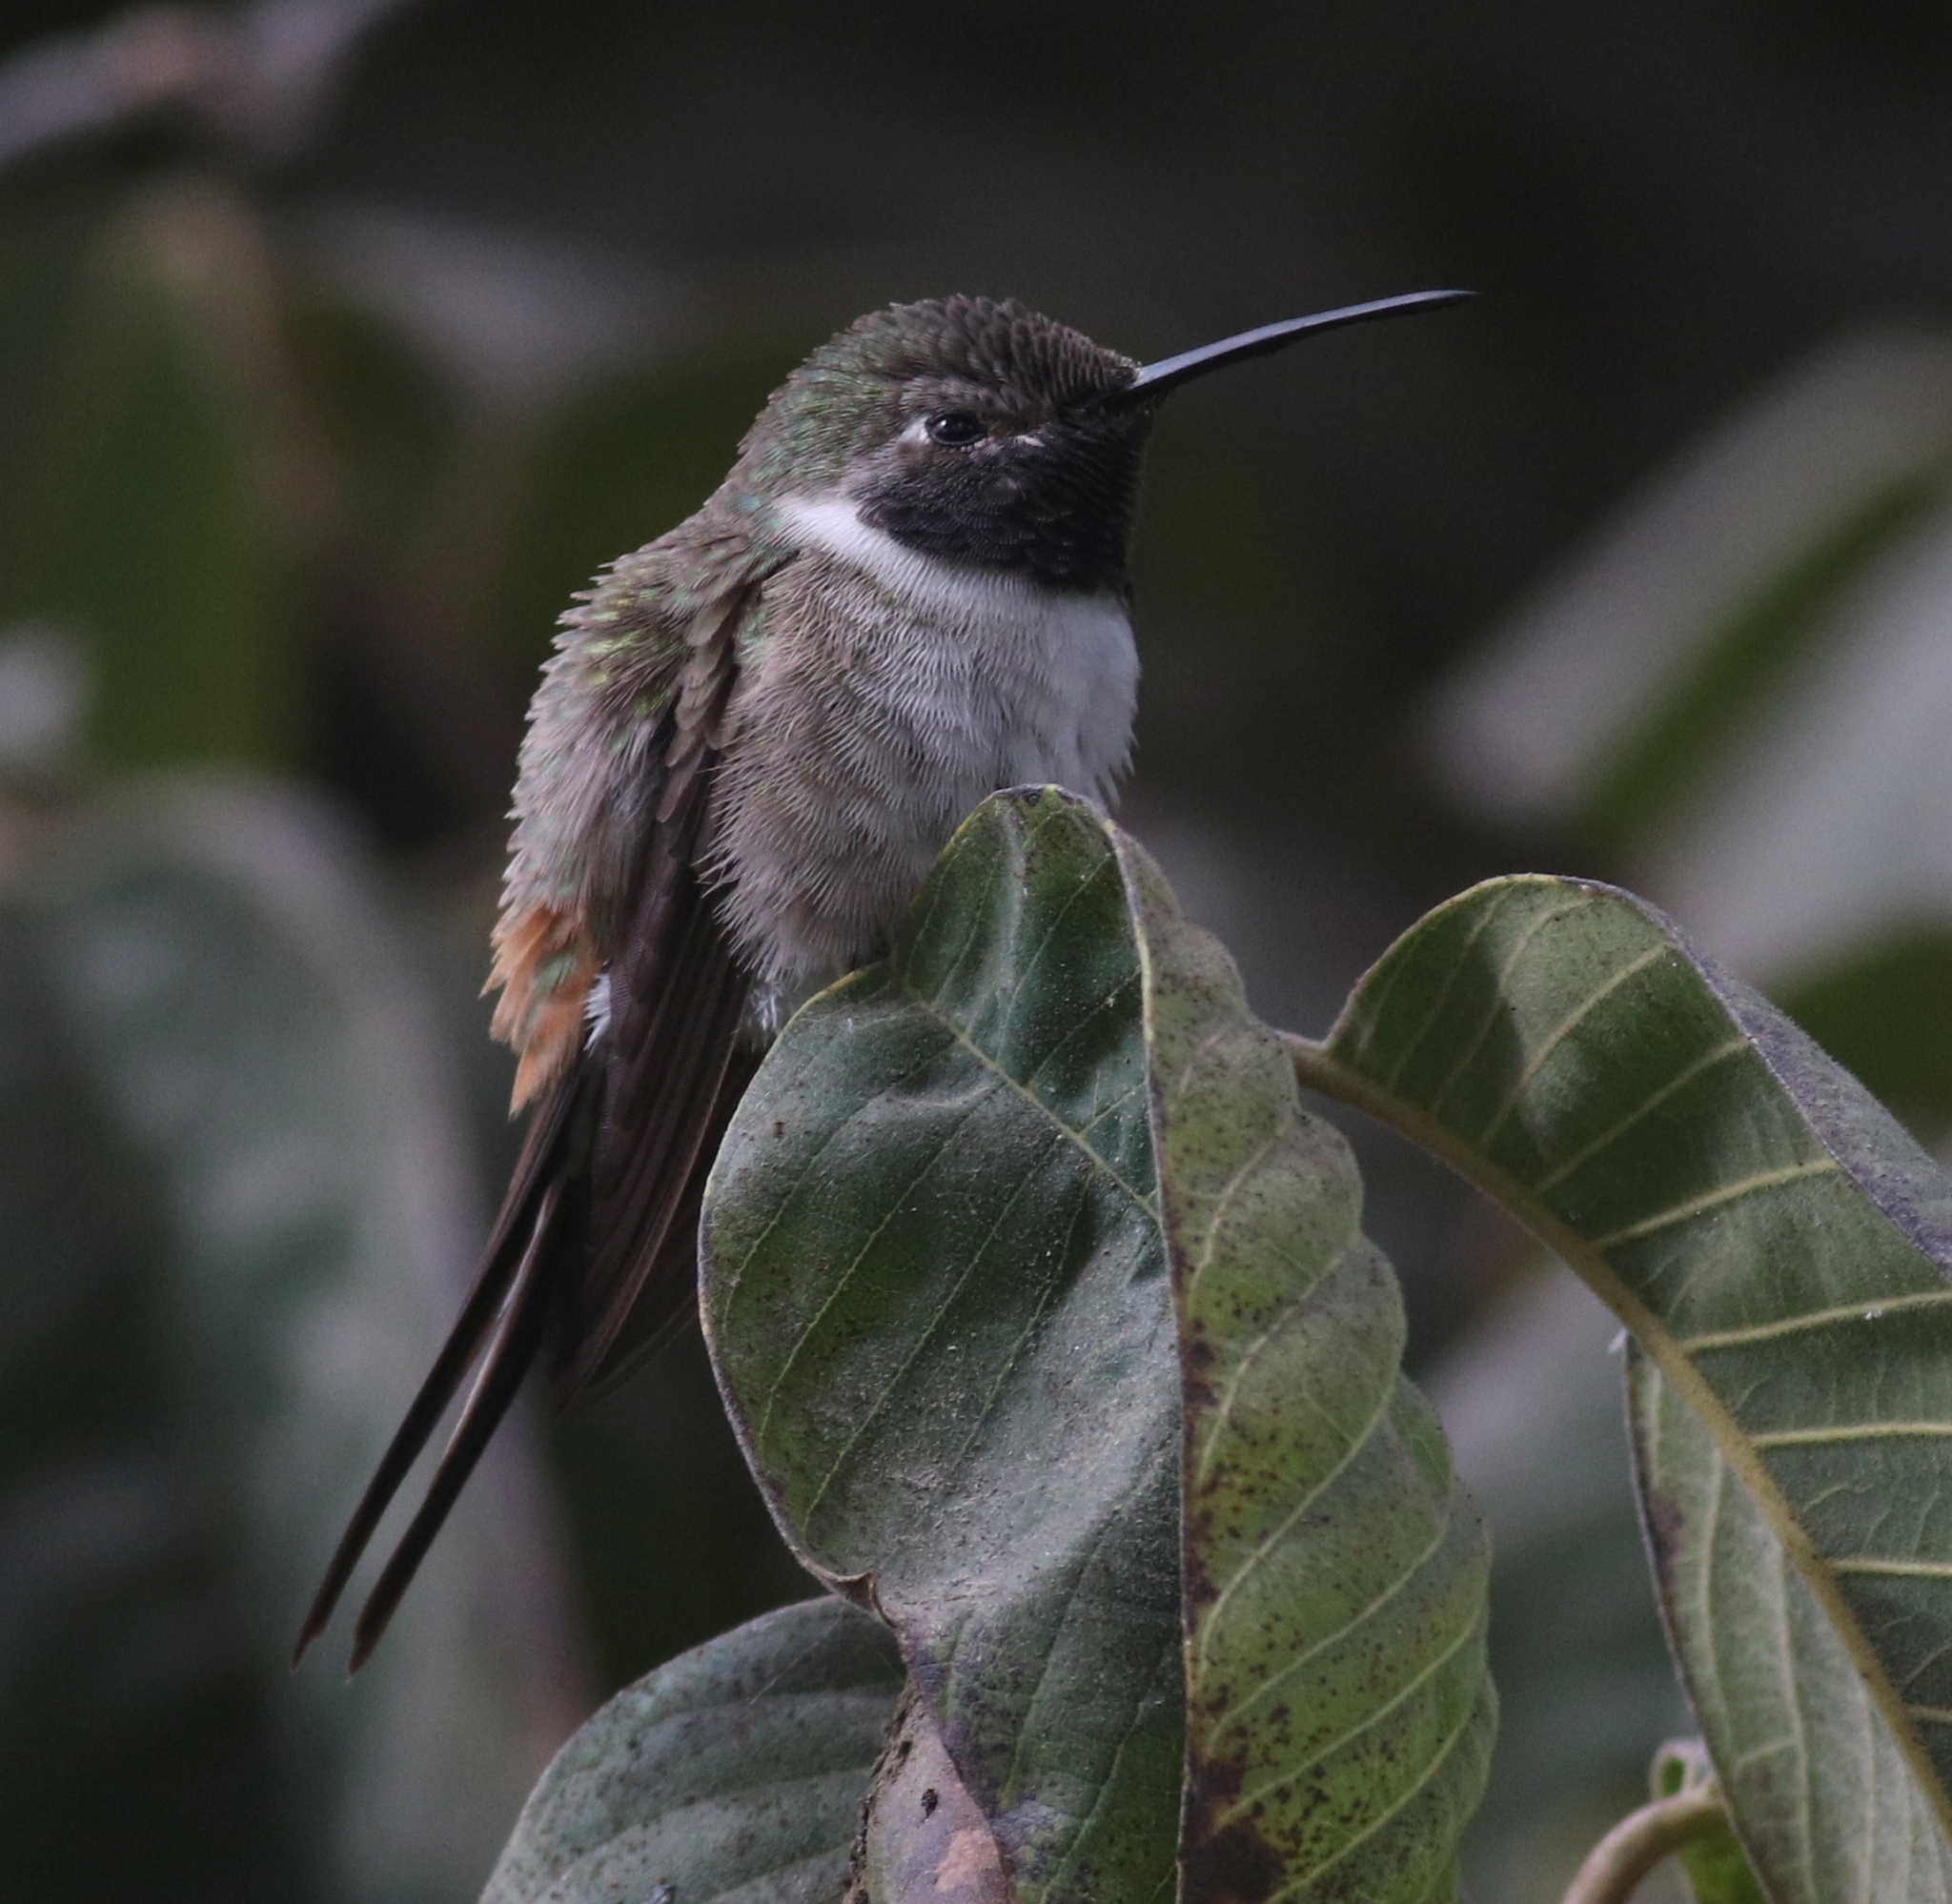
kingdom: Animalia
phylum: Chordata
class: Aves
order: Apodiformes
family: Trochilidae
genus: Rhodopis
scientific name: Rhodopis vesper
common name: Oasis hummingbird
